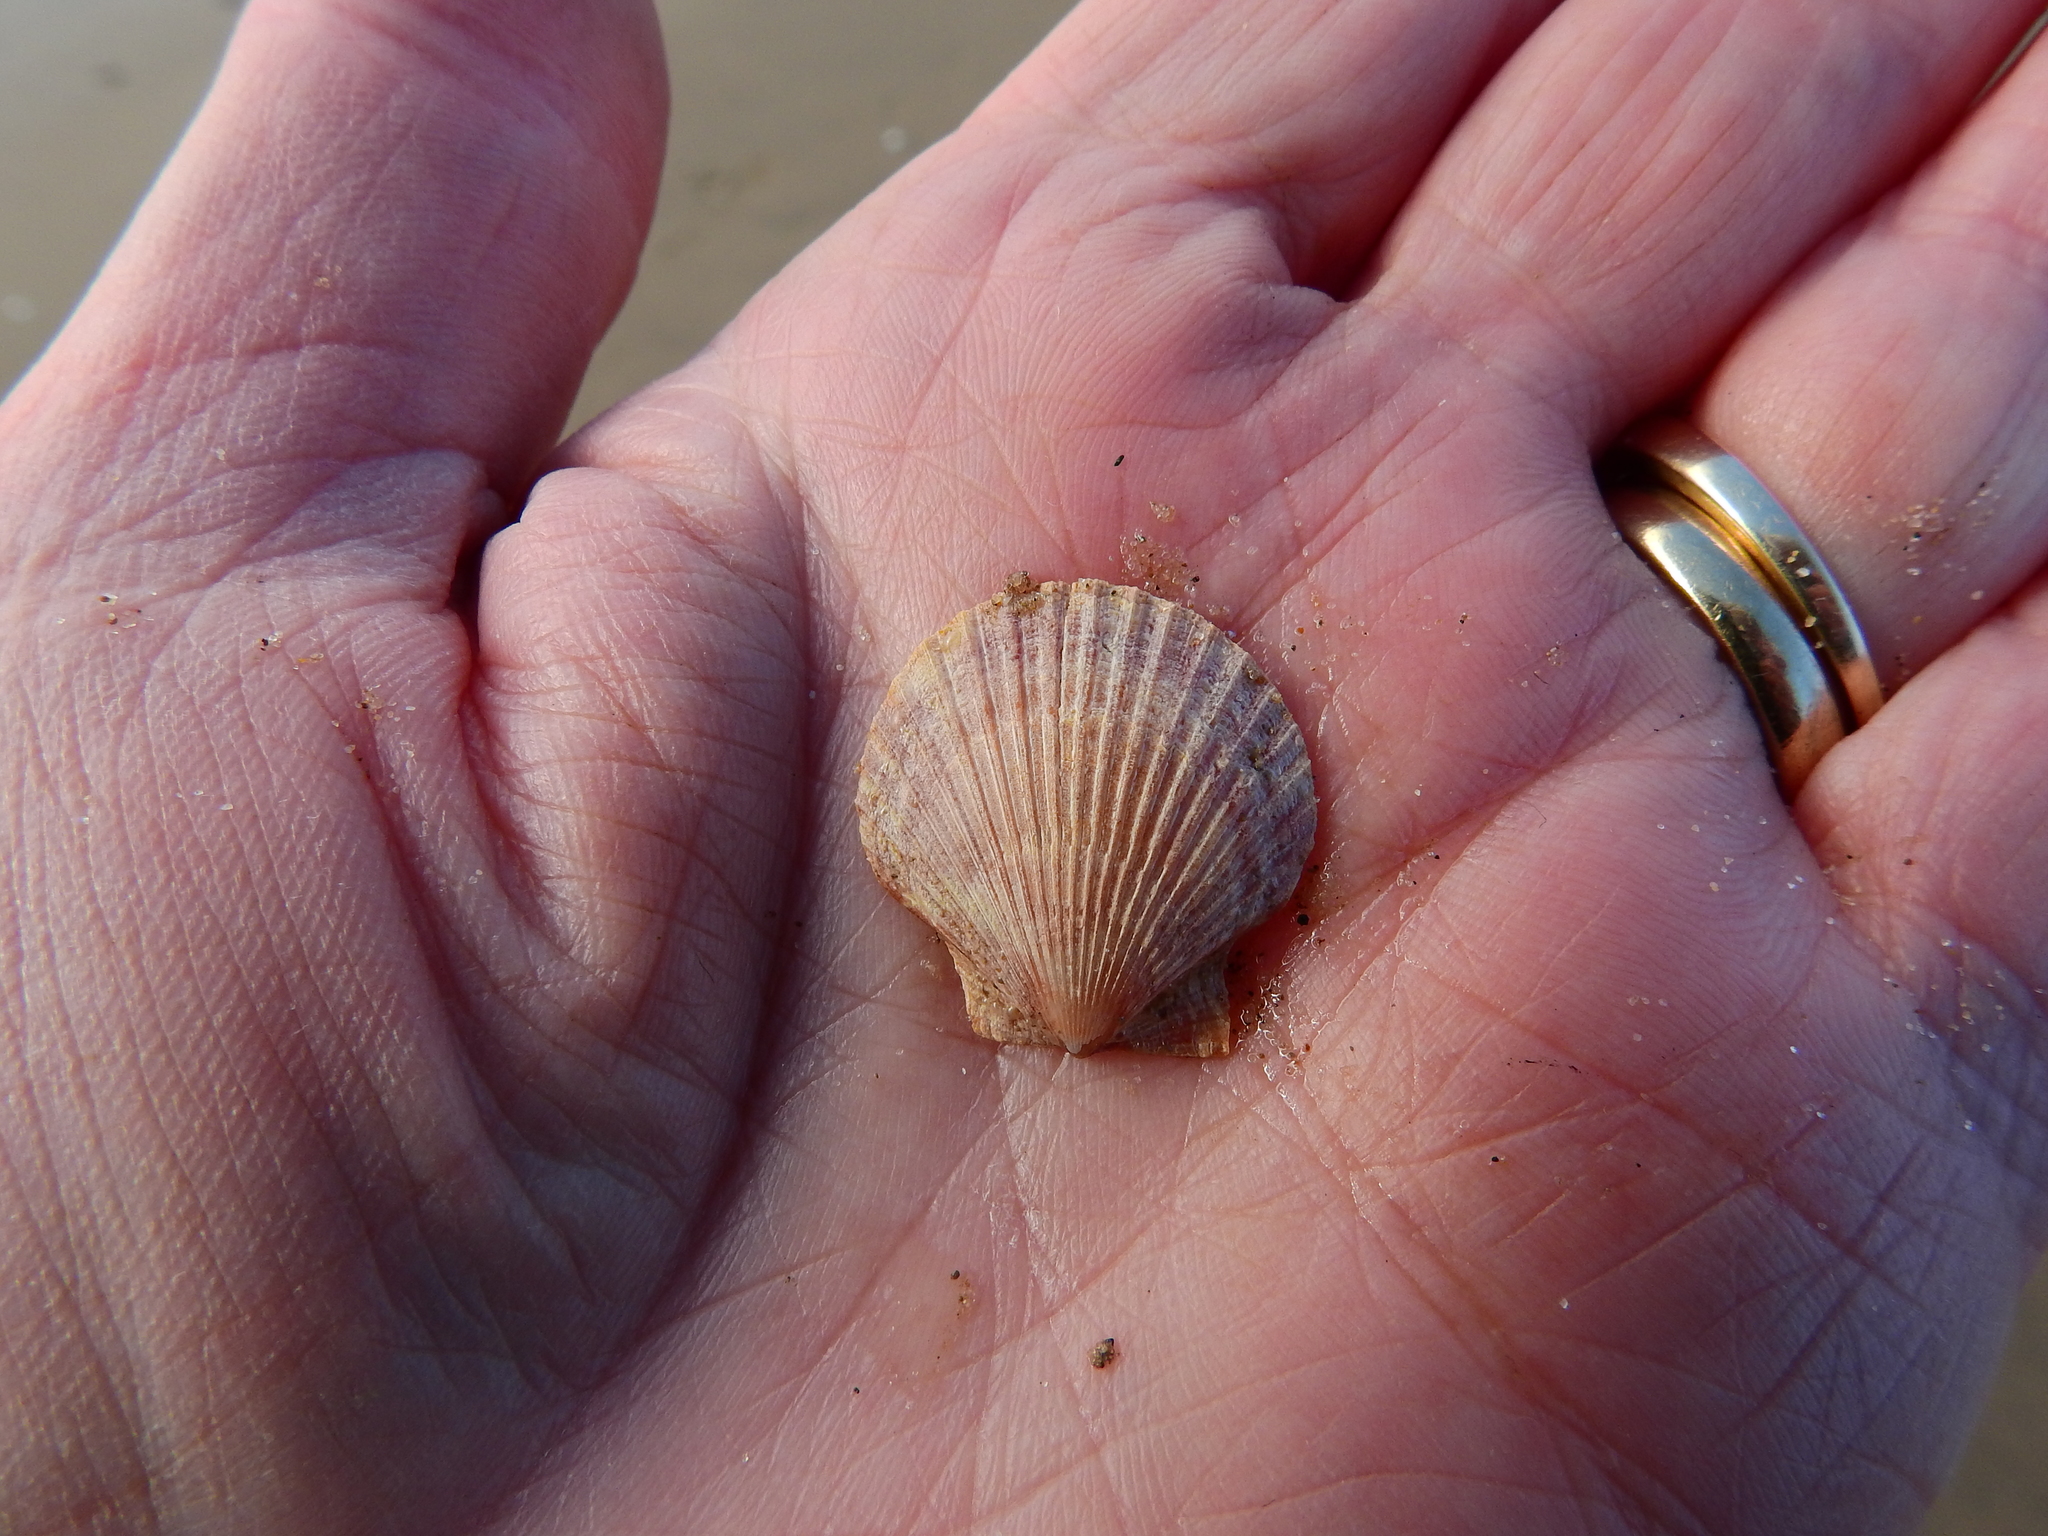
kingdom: Animalia
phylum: Mollusca
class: Bivalvia
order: Pectinida
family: Pectinidae
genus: Aequipecten
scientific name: Aequipecten opercularis
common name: Queen scallop
